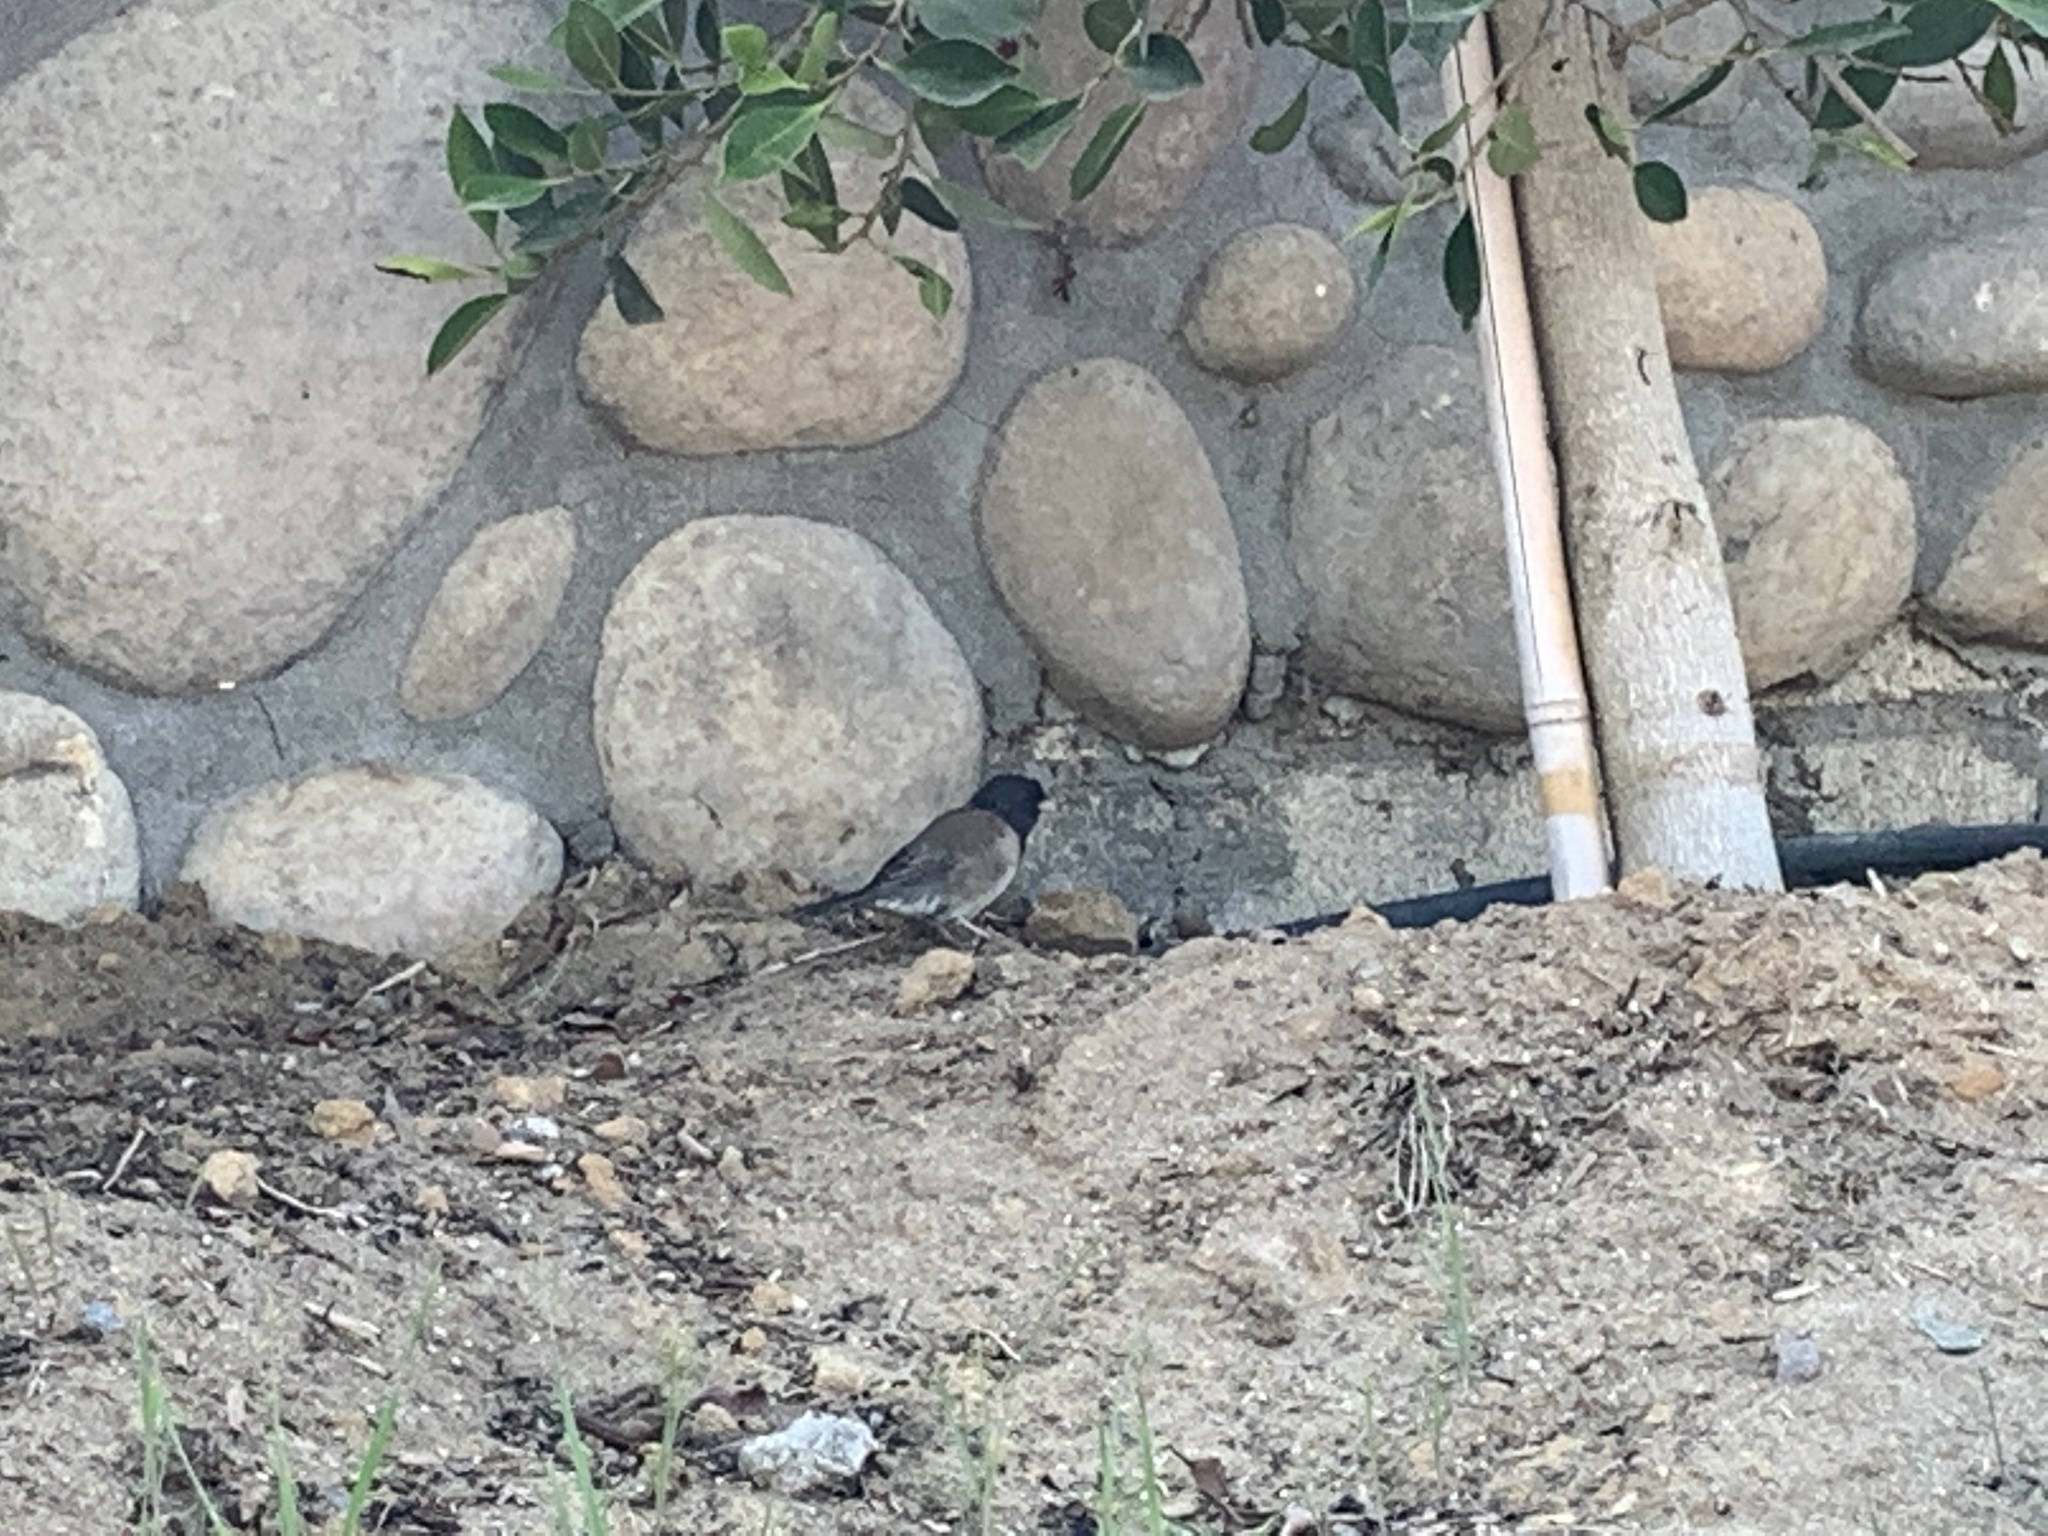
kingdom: Animalia
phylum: Chordata
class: Aves
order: Passeriformes
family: Passerellidae
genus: Junco
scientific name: Junco hyemalis
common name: Dark-eyed junco
